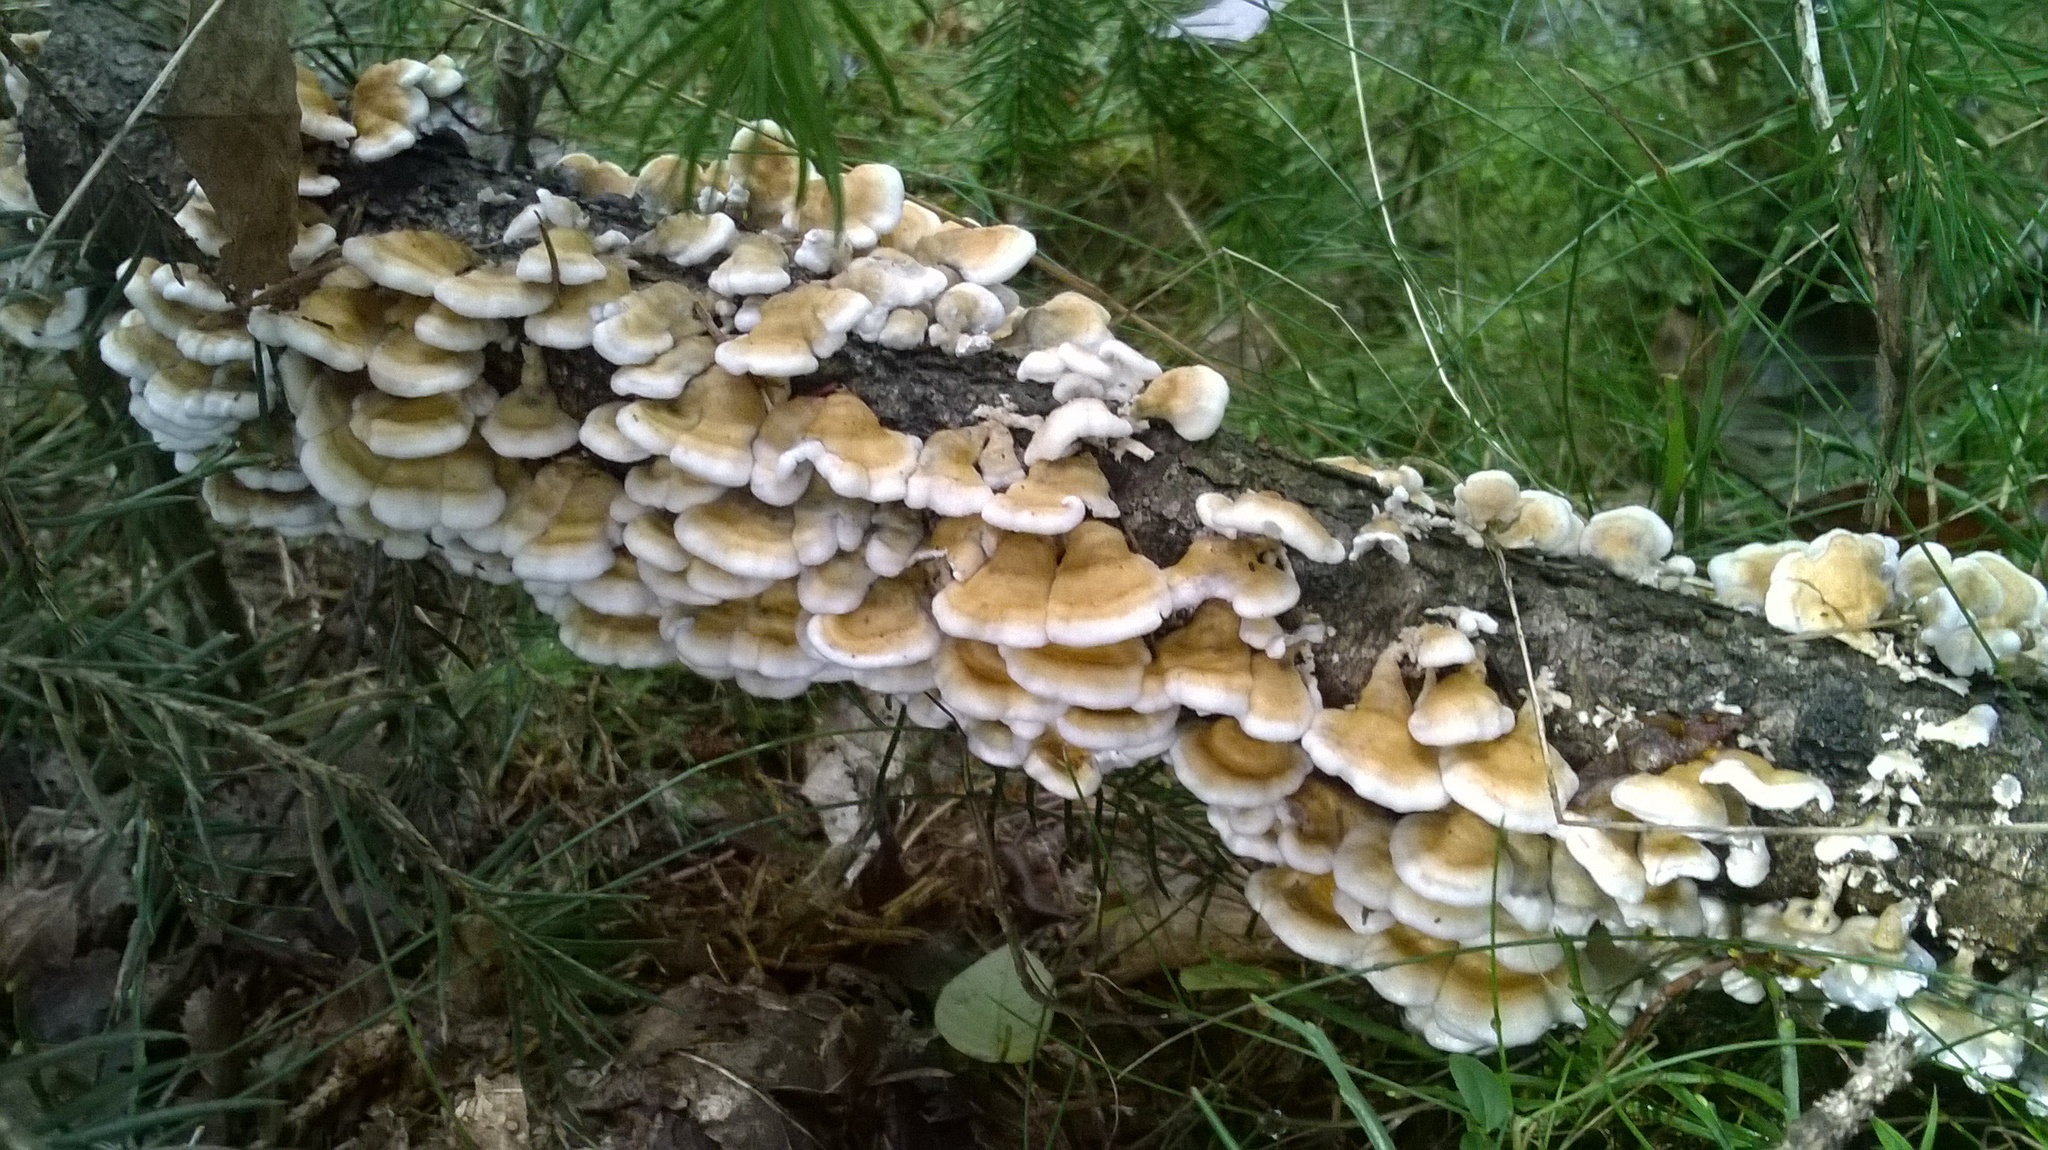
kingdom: Fungi
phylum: Basidiomycota
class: Agaricomycetes
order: Amylocorticiales
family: Amylocorticiaceae
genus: Plicaturopsis
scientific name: Plicaturopsis crispa
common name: Crimped gill
